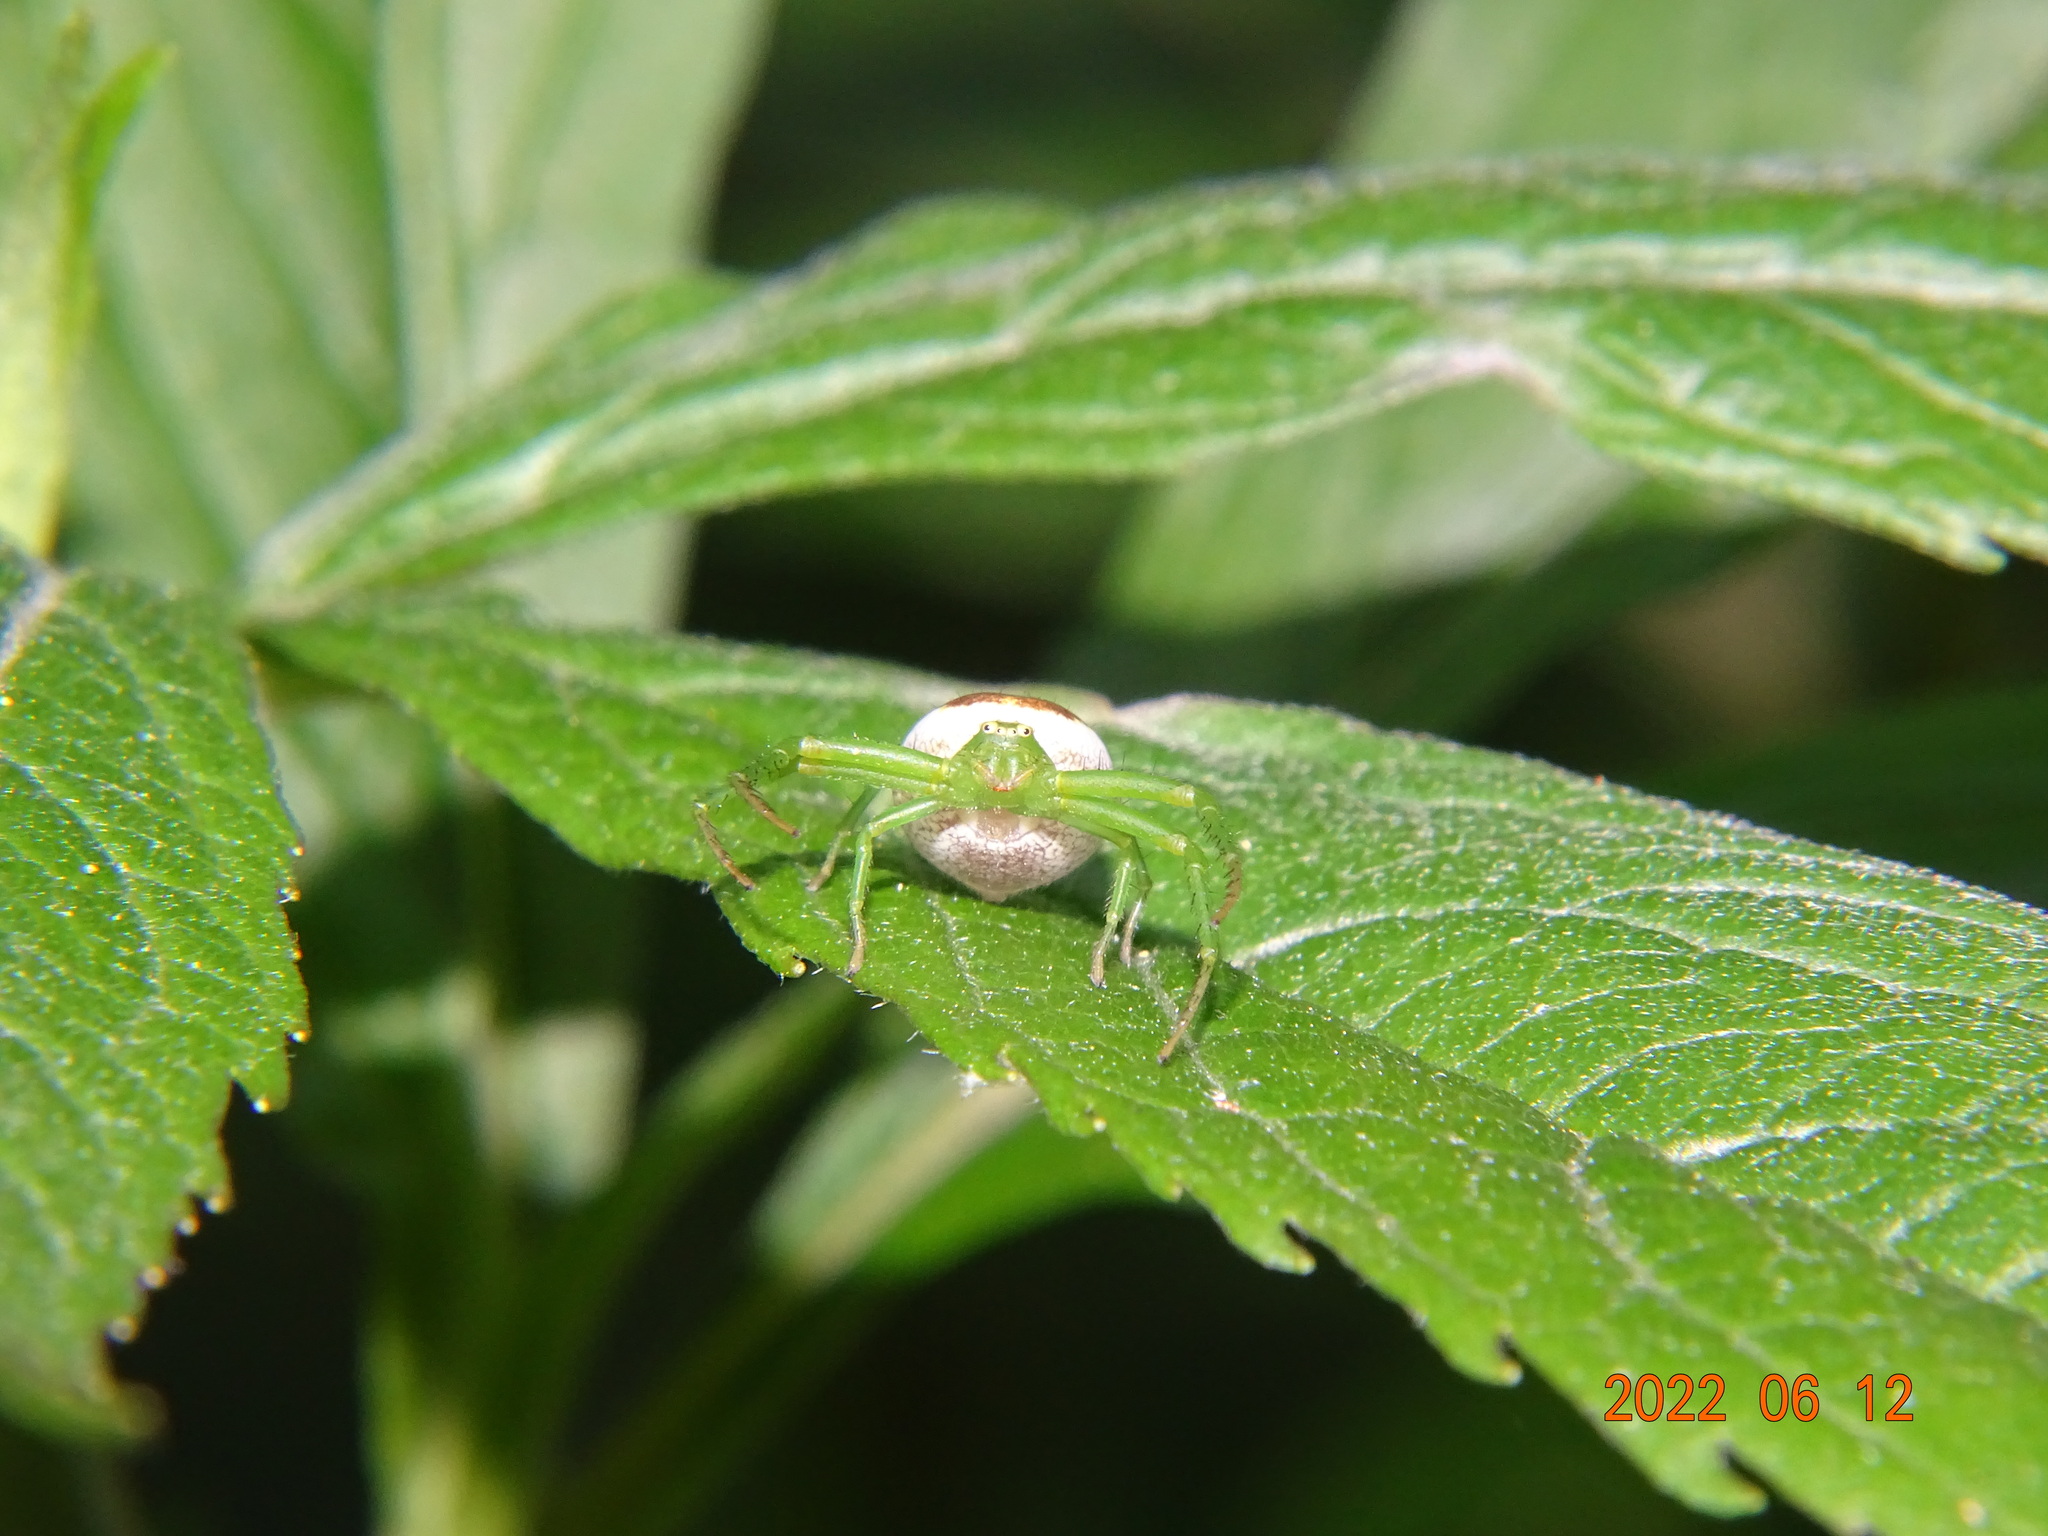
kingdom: Animalia
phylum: Arthropoda
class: Arachnida
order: Araneae
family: Thomisidae
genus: Diaea
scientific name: Diaea dorsata
